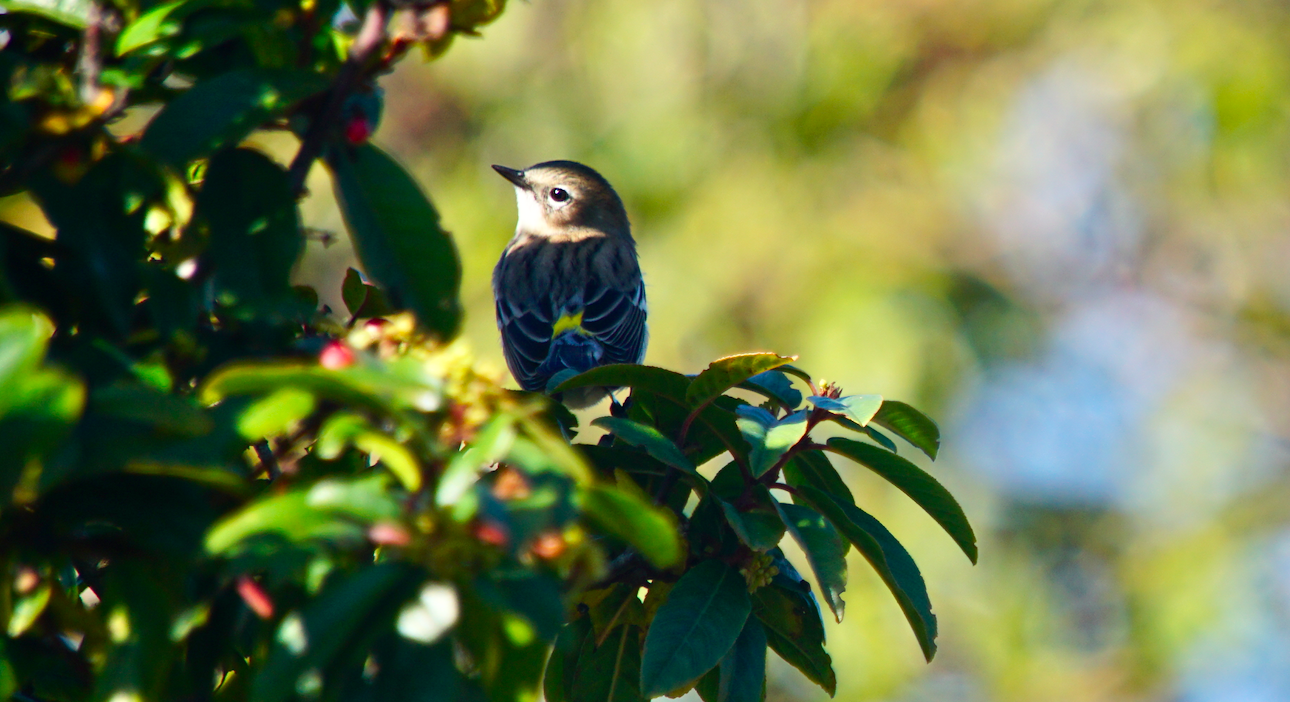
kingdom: Animalia
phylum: Chordata
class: Aves
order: Passeriformes
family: Parulidae
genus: Setophaga
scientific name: Setophaga coronata
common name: Myrtle warbler
